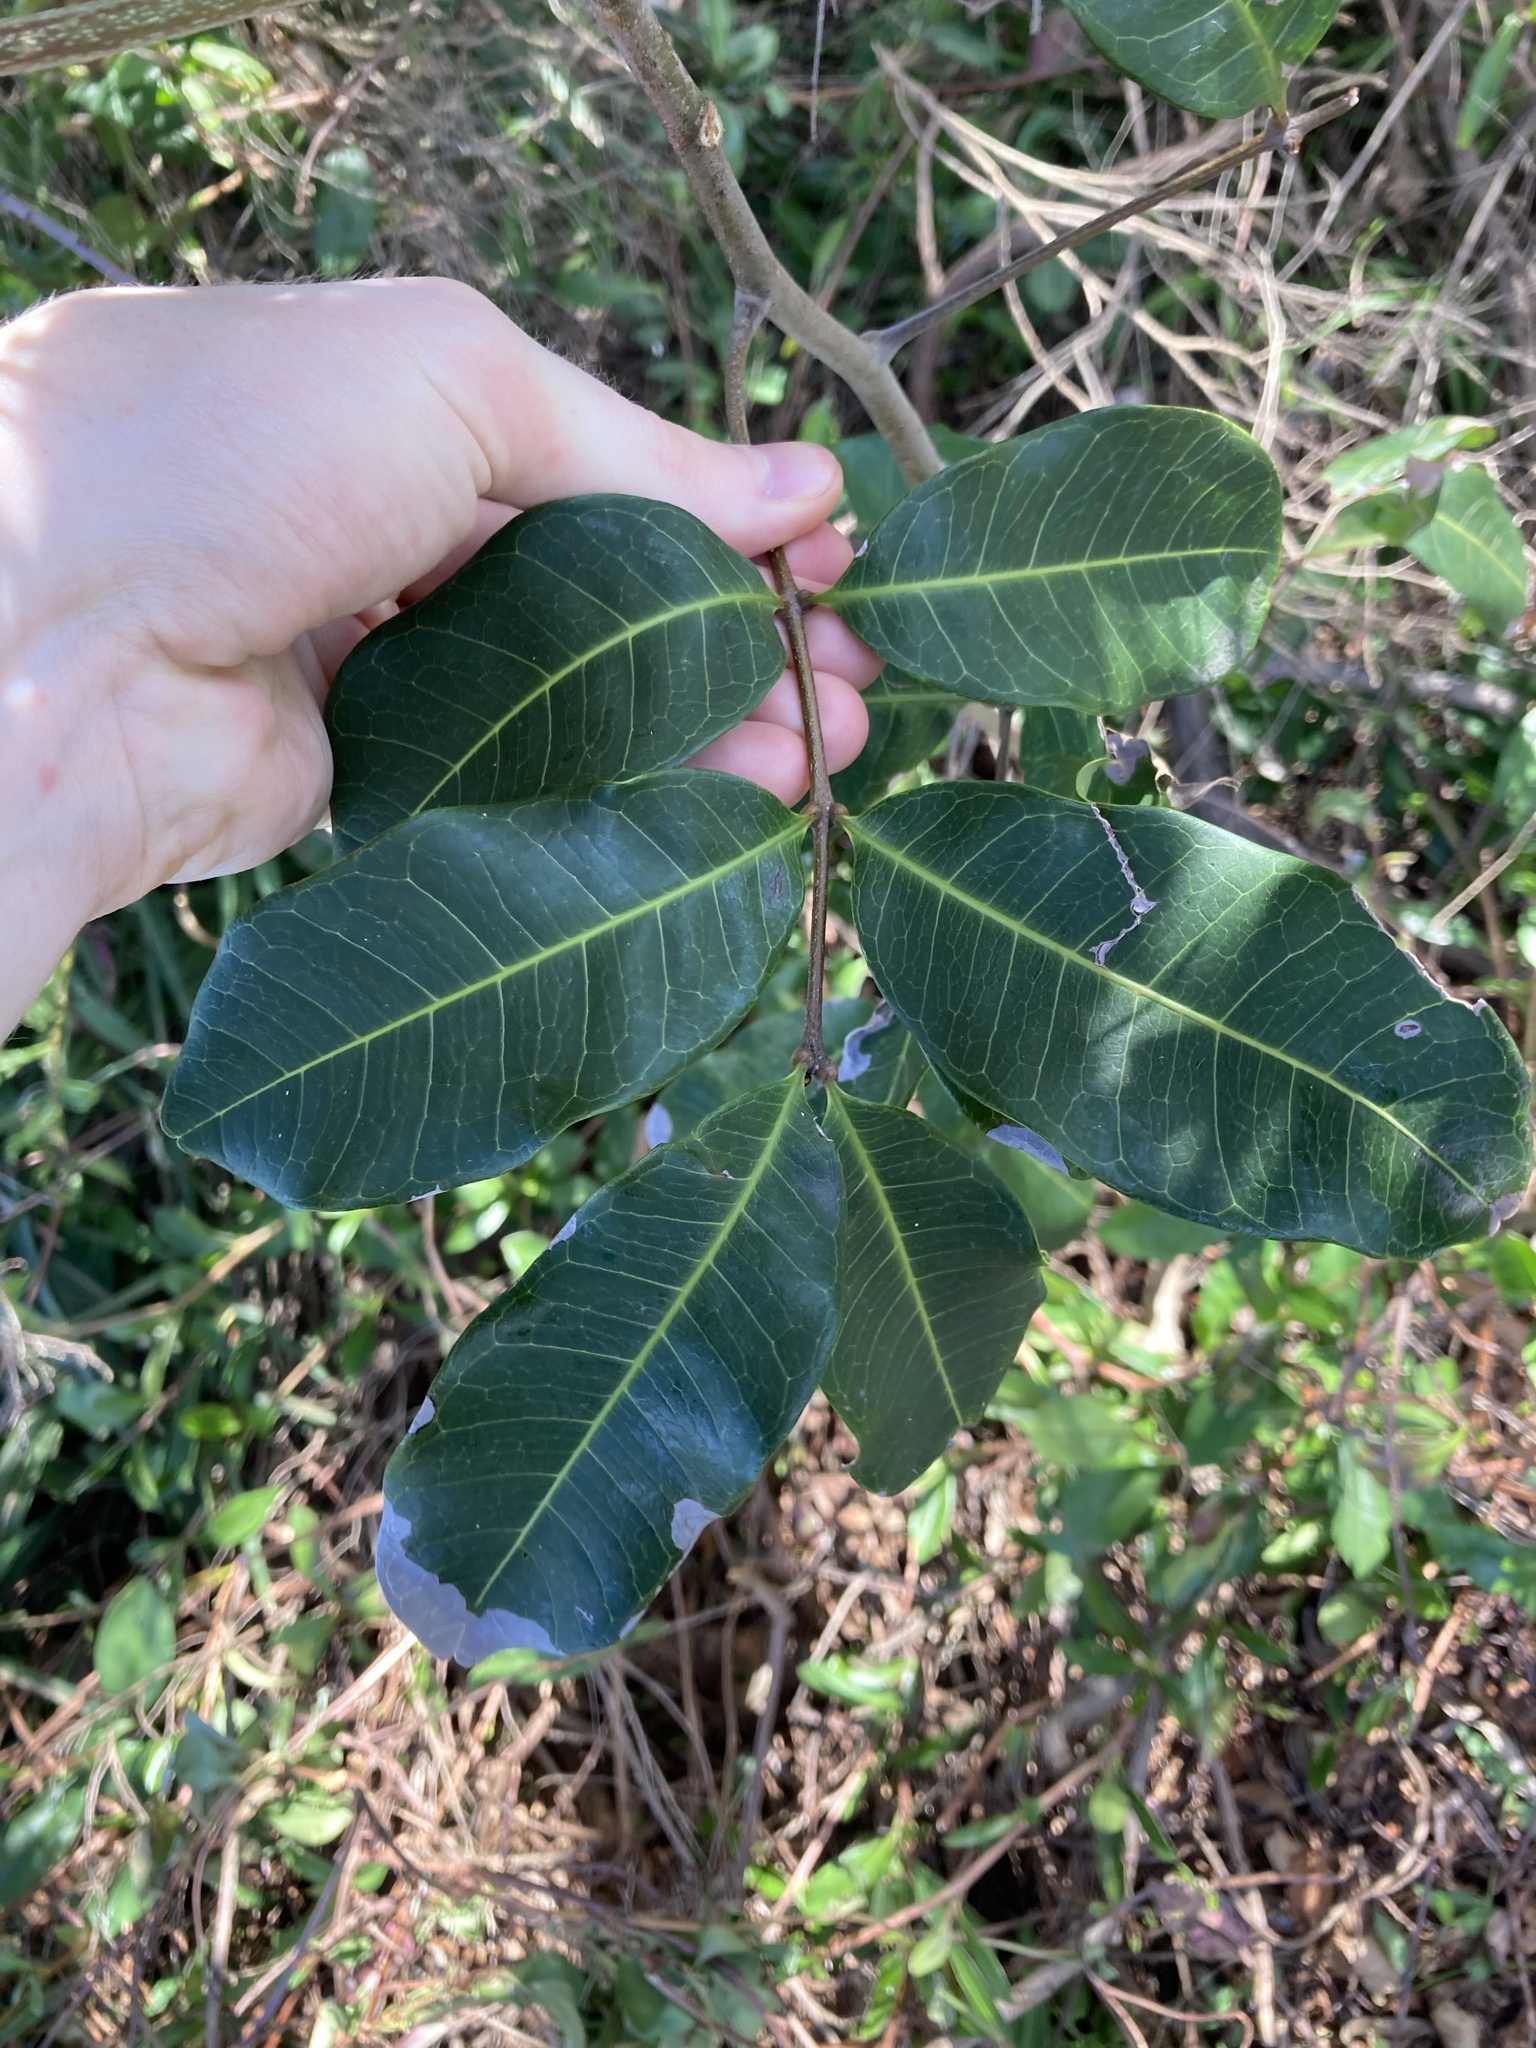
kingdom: Plantae
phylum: Tracheophyta
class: Magnoliopsida
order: Sapindales
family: Sapindaceae
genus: Cupaniopsis
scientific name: Cupaniopsis anacardioides
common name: Carrotwood
